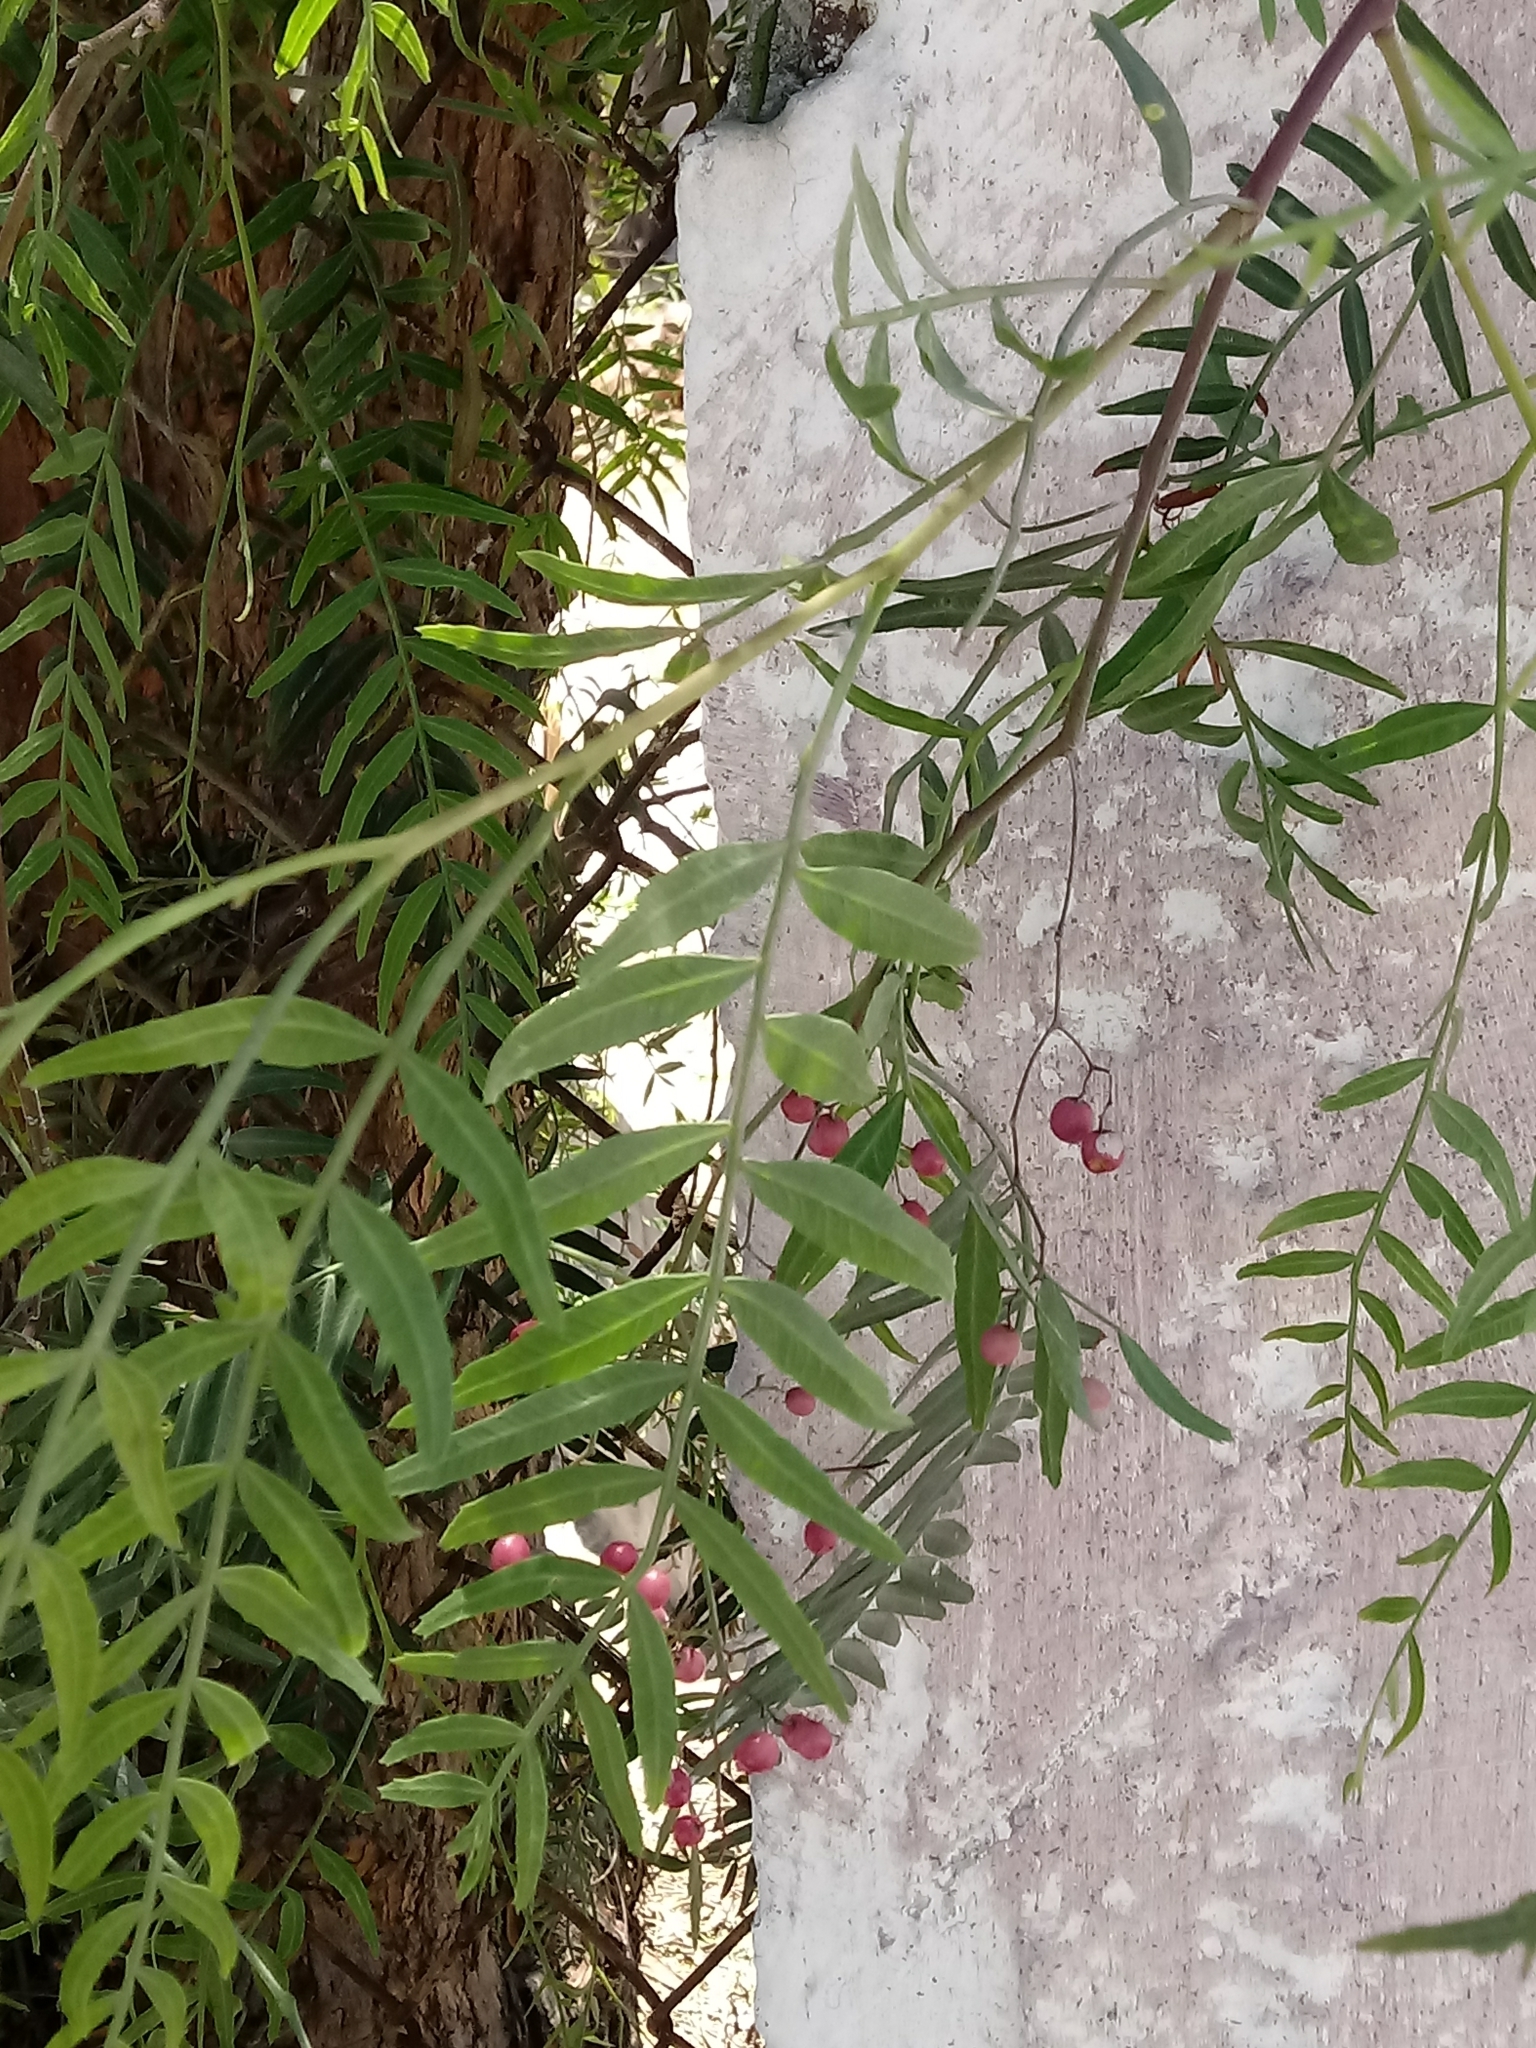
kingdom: Plantae
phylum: Tracheophyta
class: Magnoliopsida
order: Sapindales
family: Anacardiaceae
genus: Schinus
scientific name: Schinus molle
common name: Peruvian peppertree
